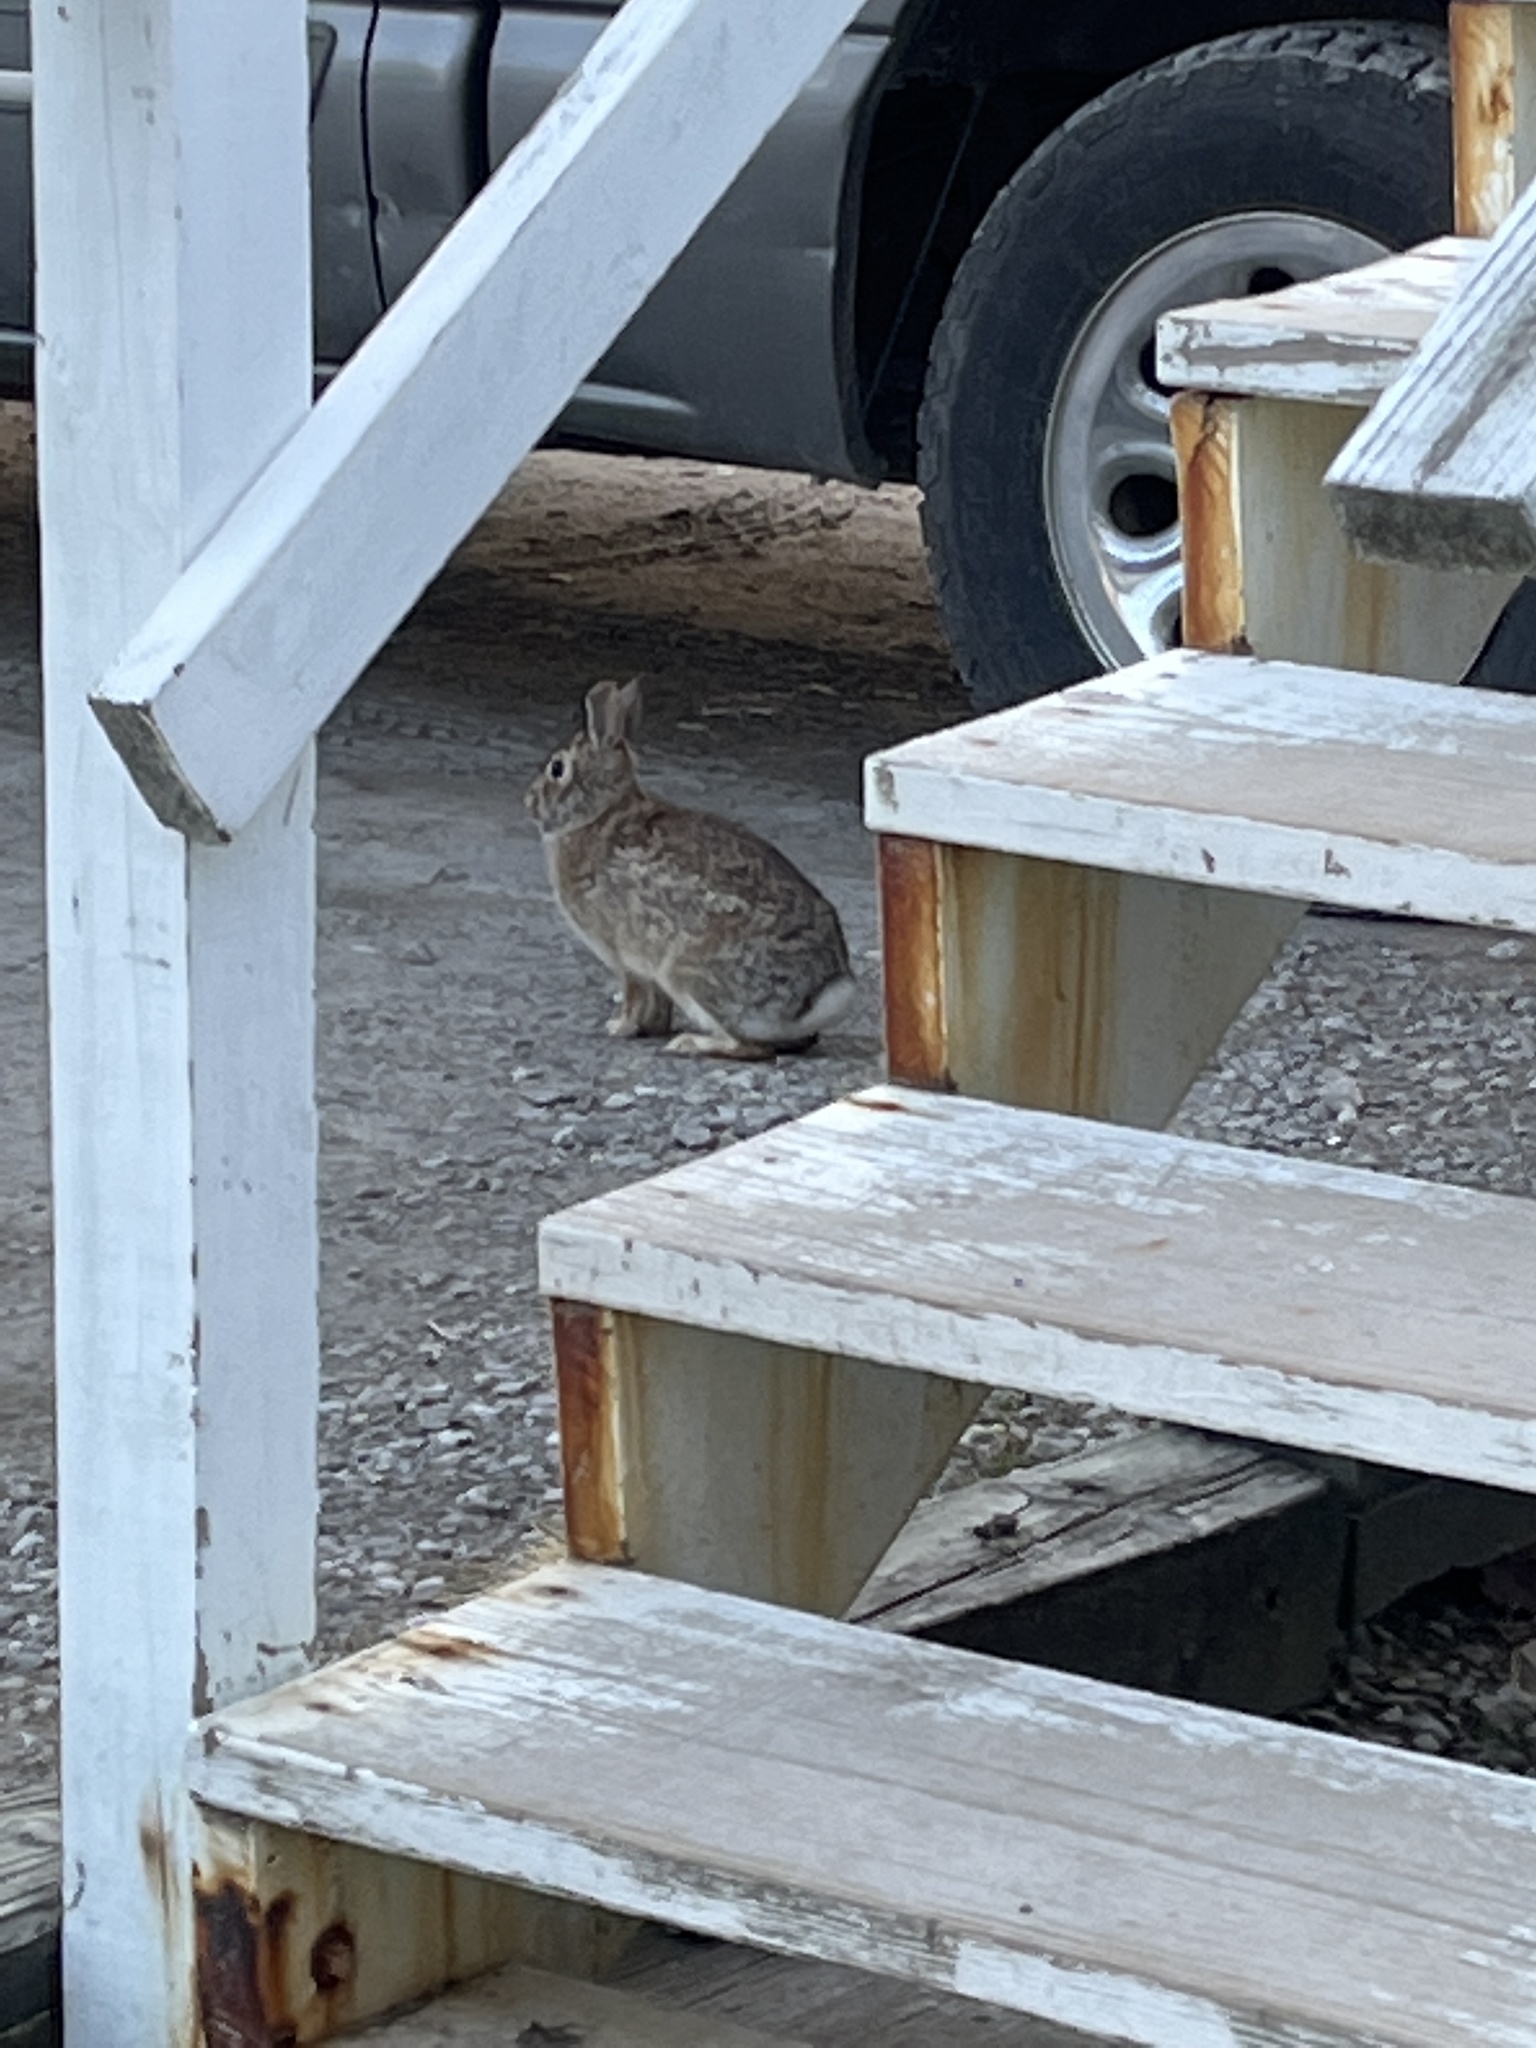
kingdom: Animalia
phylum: Chordata
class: Mammalia
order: Lagomorpha
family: Leporidae
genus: Sylvilagus
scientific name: Sylvilagus floridanus
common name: Eastern cottontail
